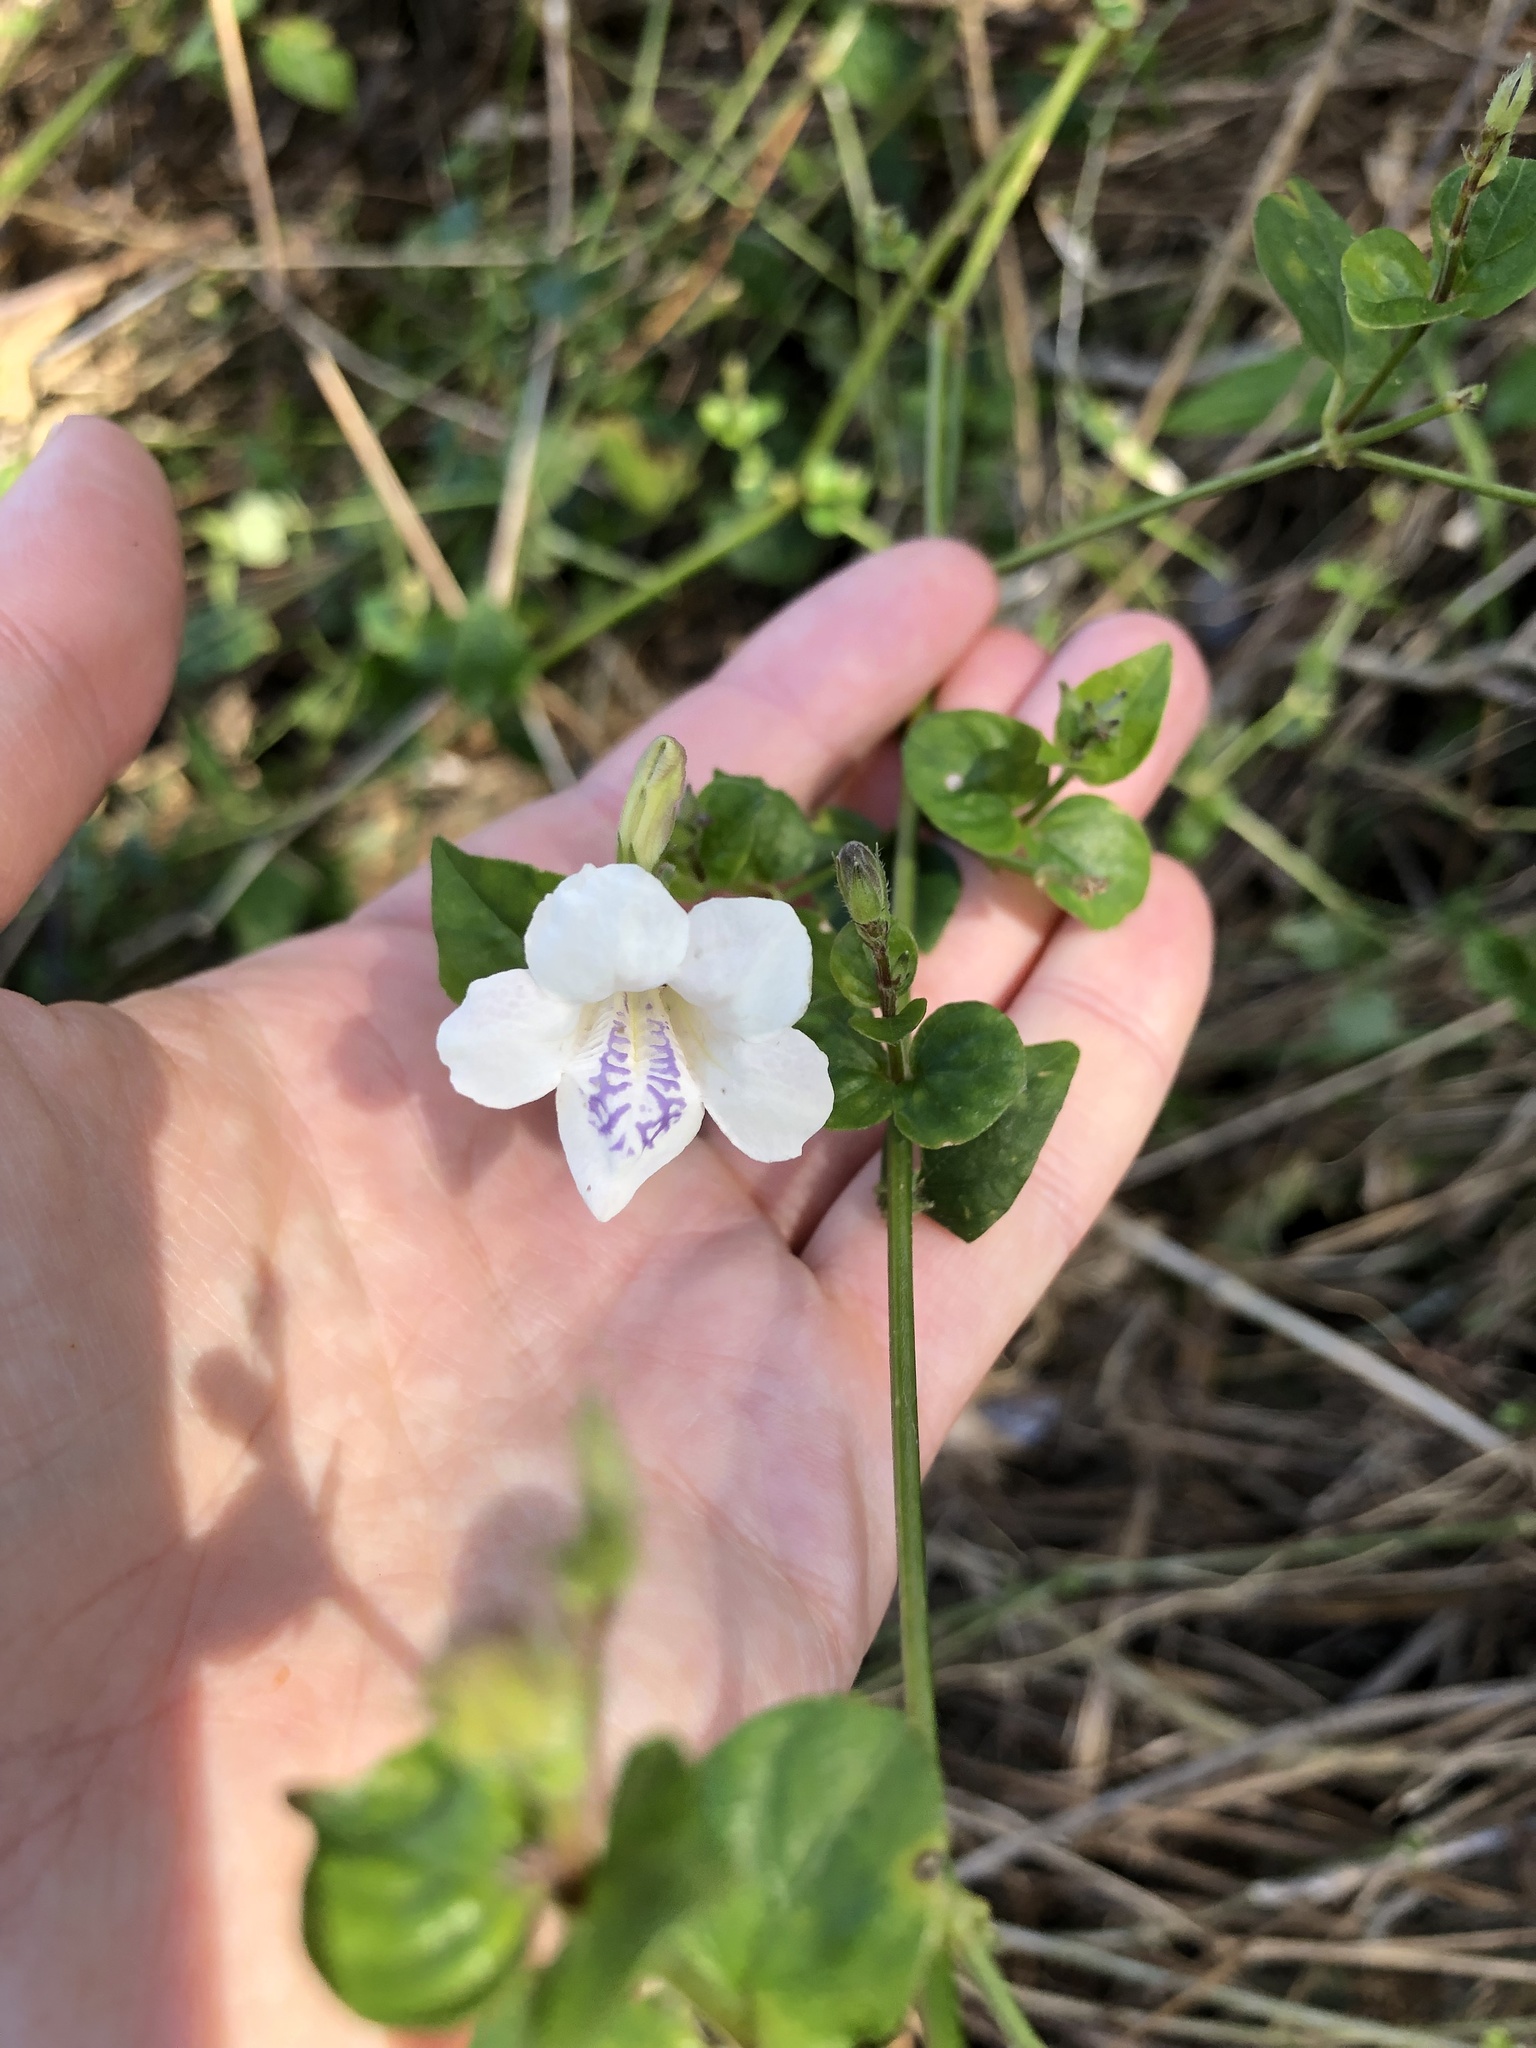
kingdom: Plantae
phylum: Tracheophyta
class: Magnoliopsida
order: Lamiales
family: Acanthaceae
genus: Asystasia
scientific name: Asystasia intrusa
